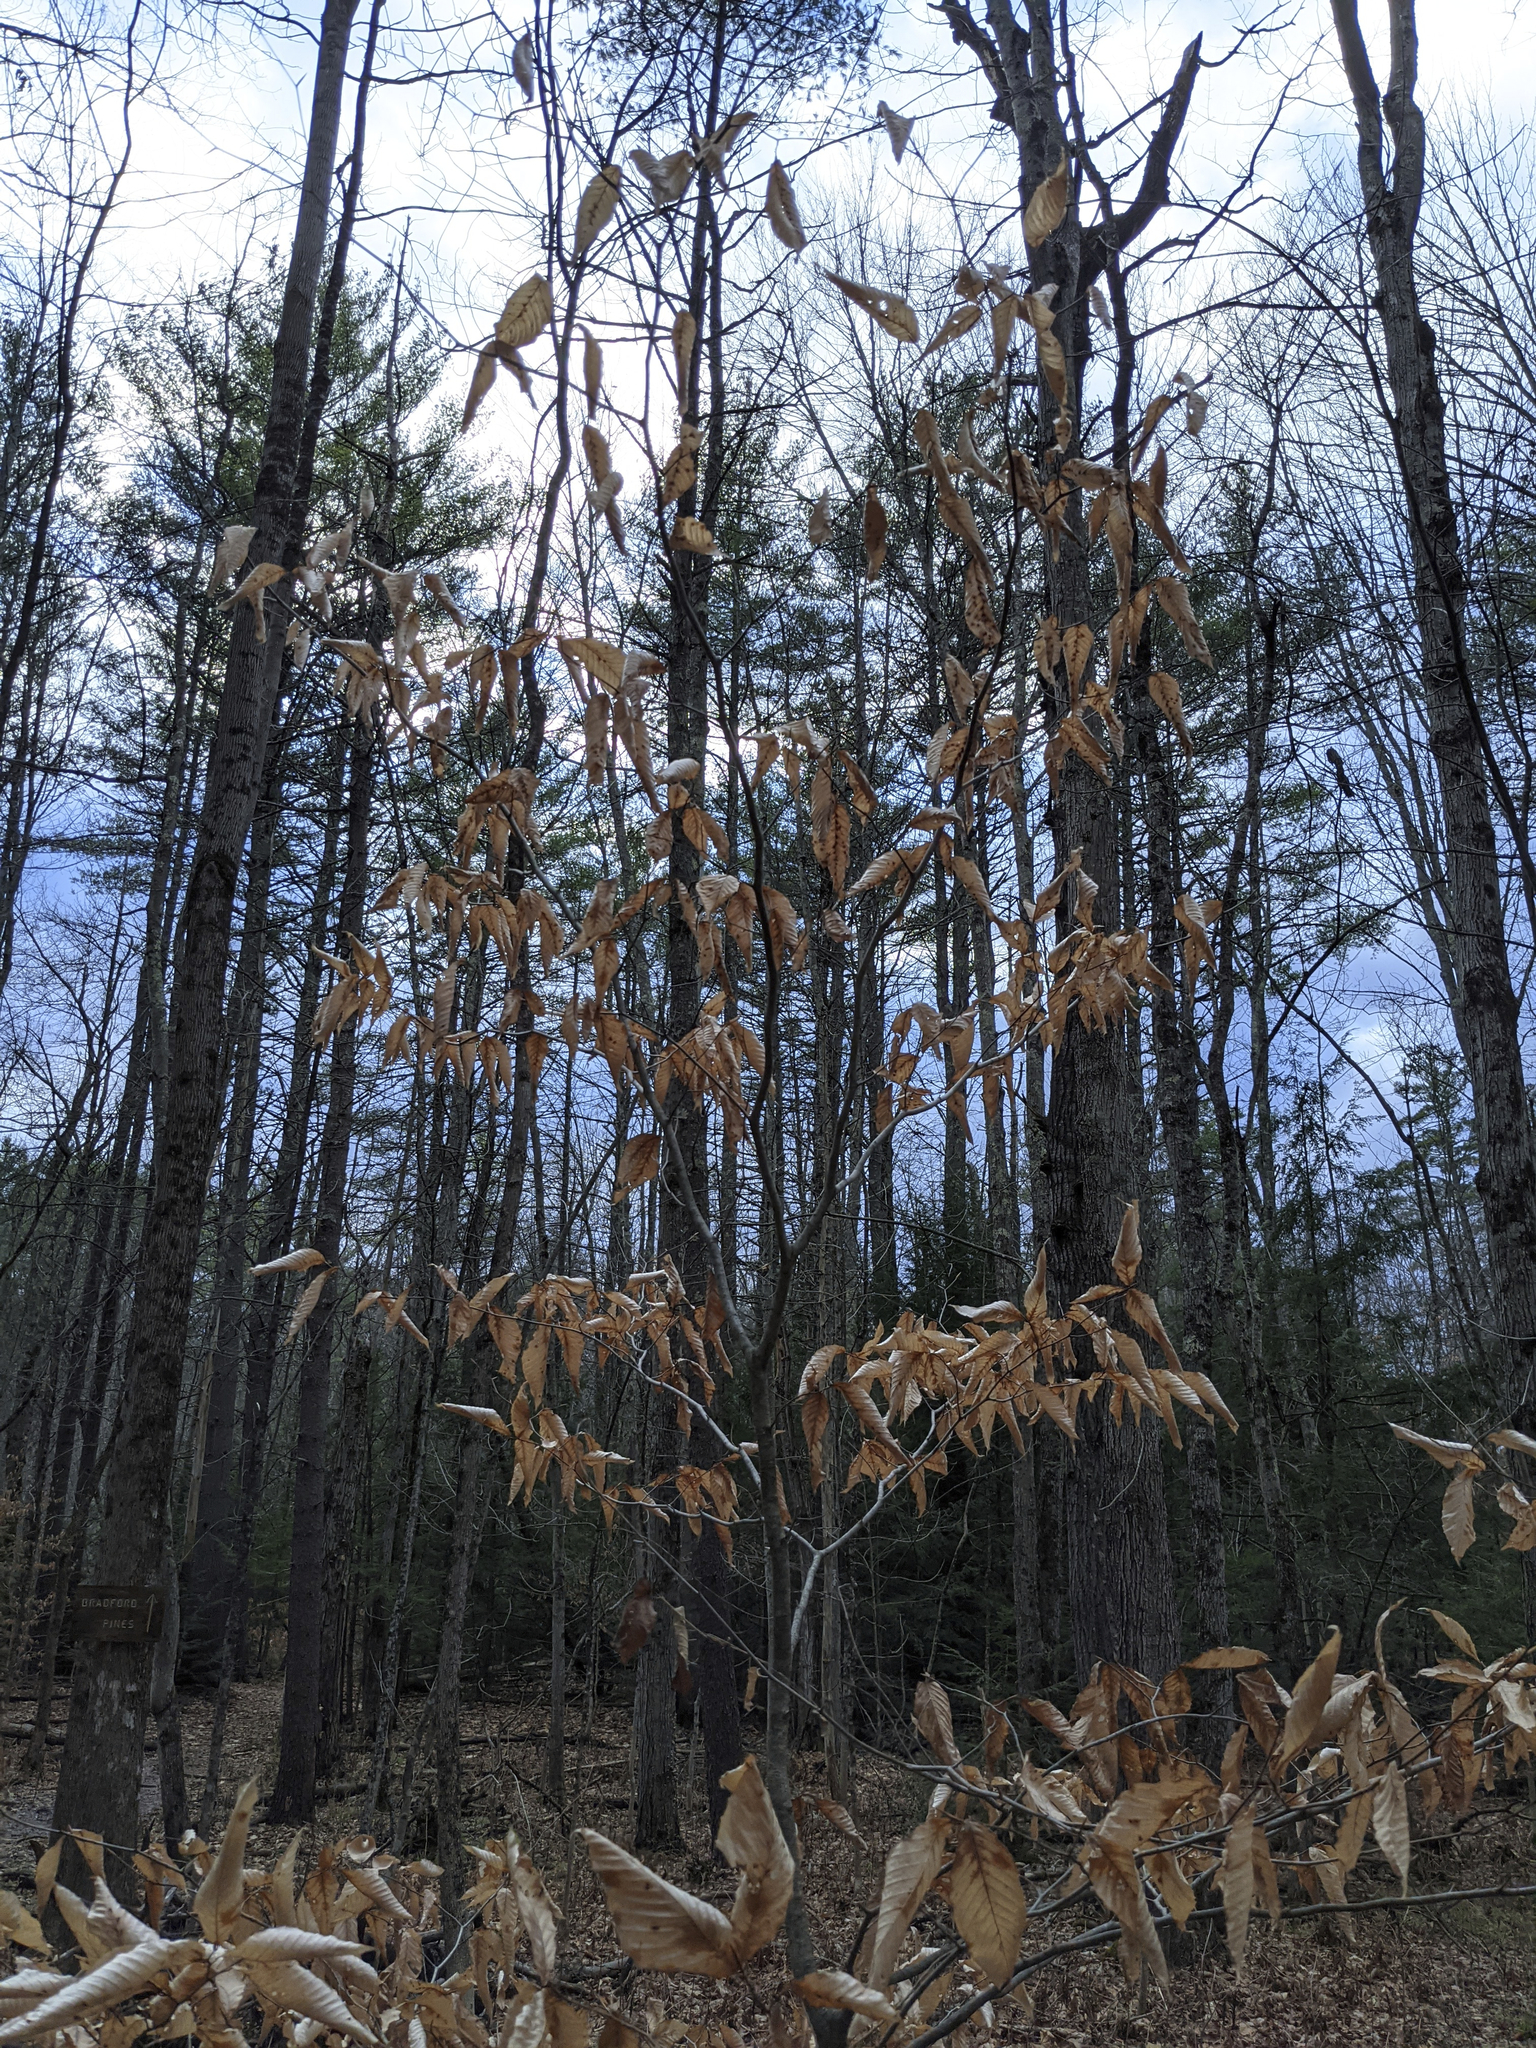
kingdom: Plantae
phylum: Tracheophyta
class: Magnoliopsida
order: Fagales
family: Fagaceae
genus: Fagus
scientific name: Fagus grandifolia
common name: American beech
